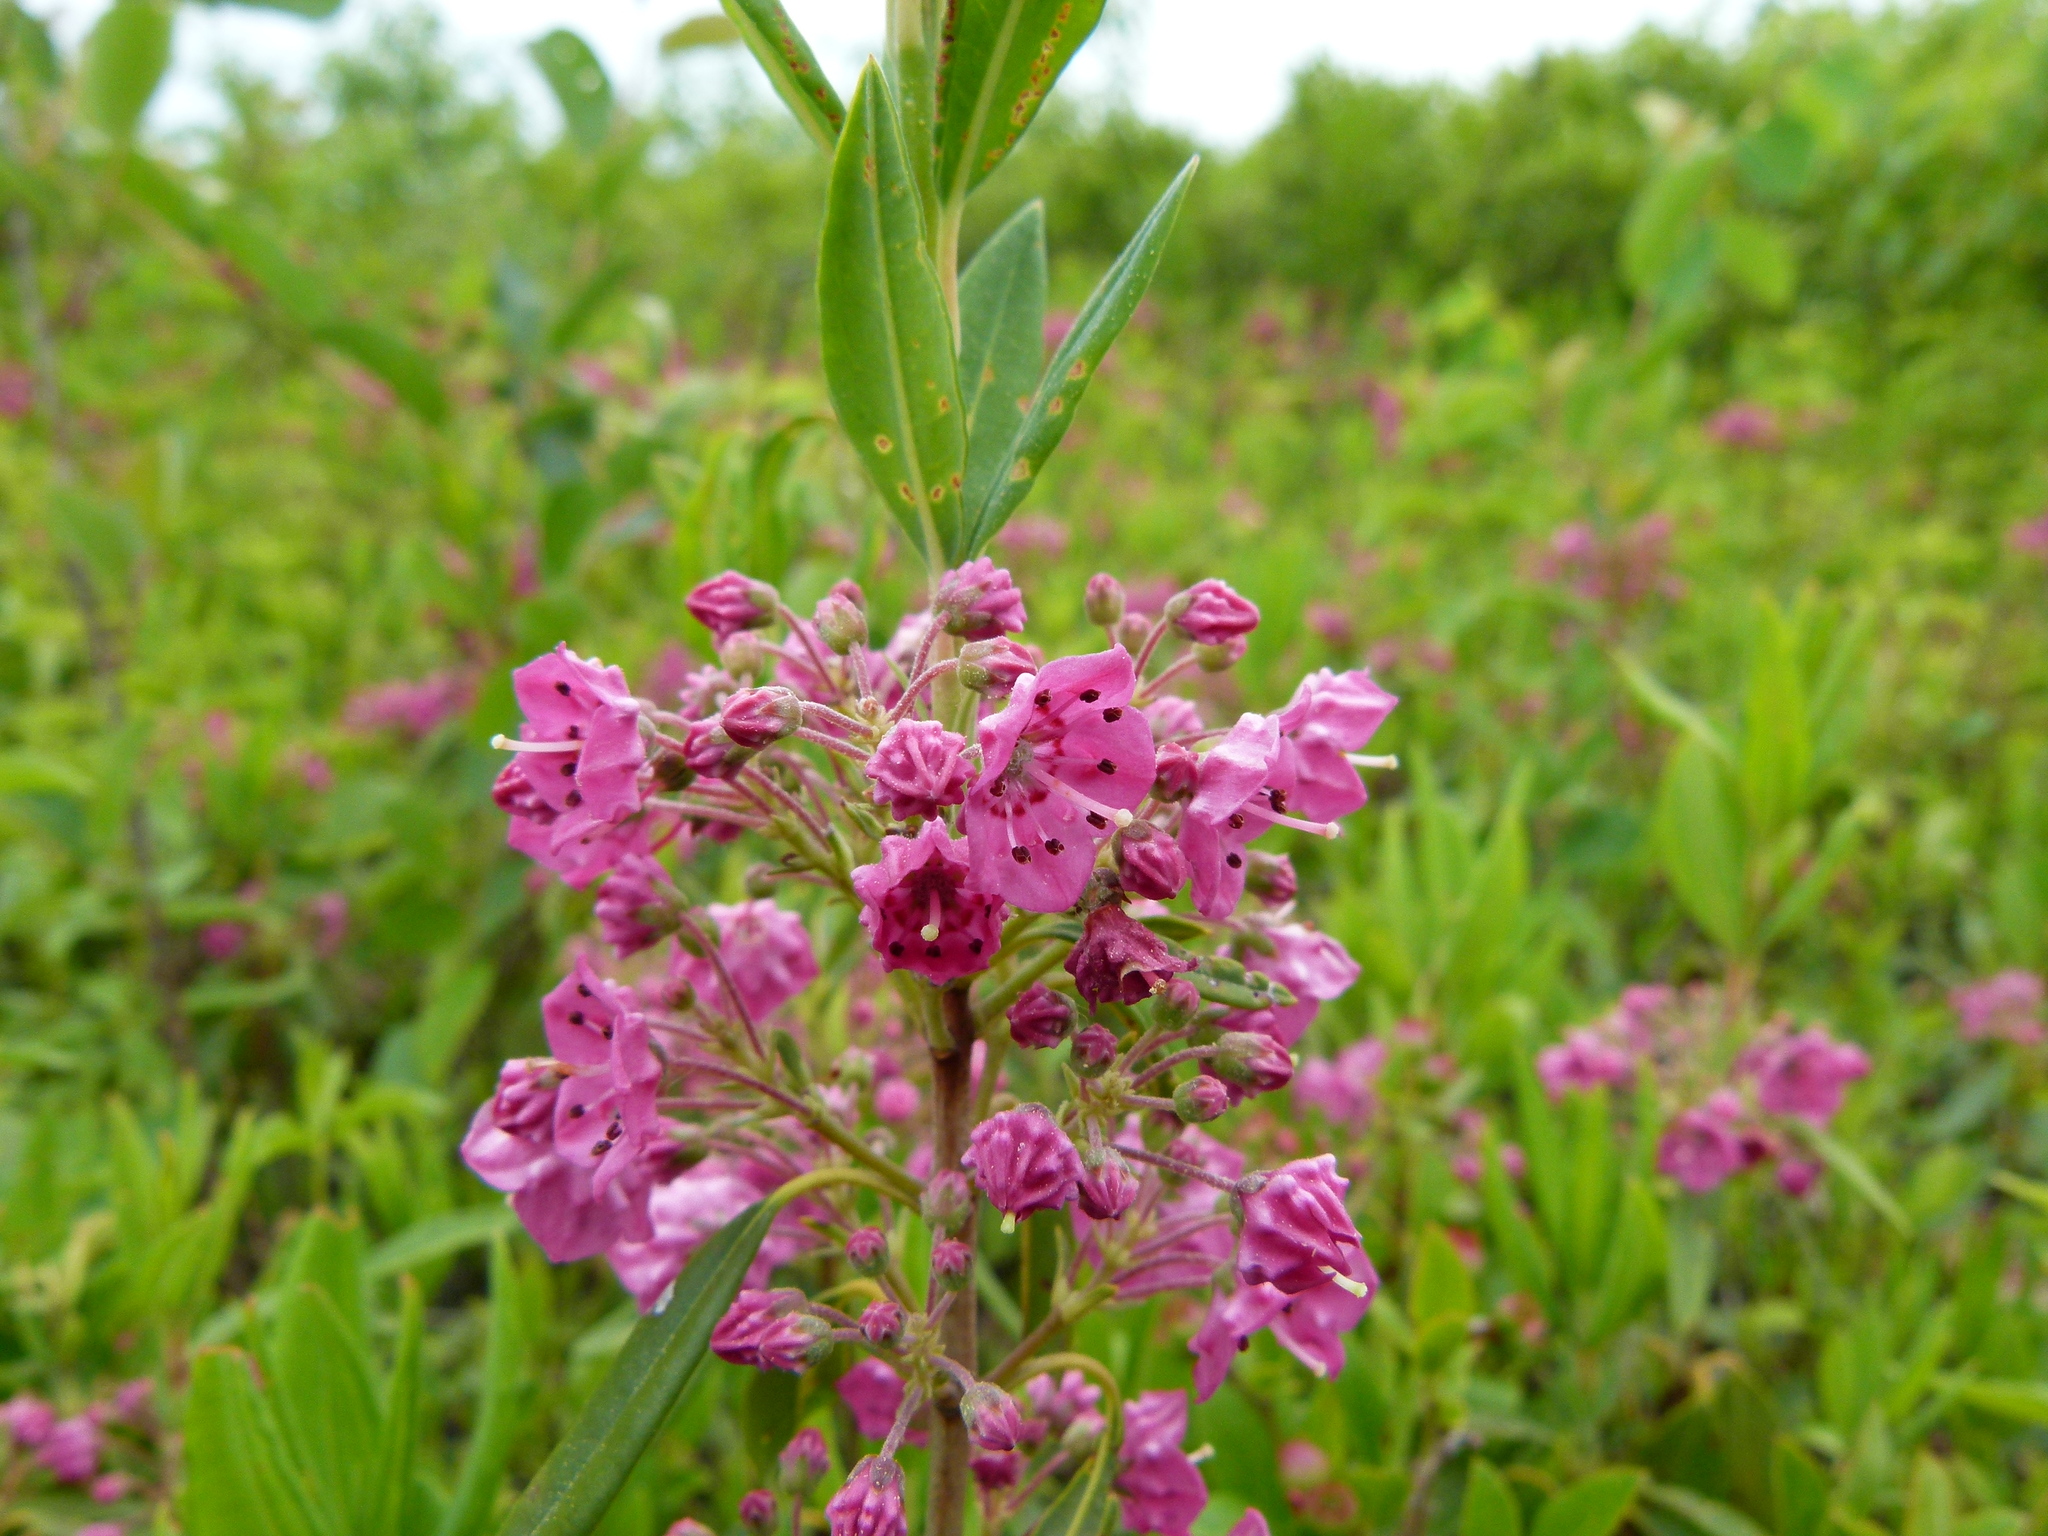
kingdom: Plantae
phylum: Tracheophyta
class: Magnoliopsida
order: Ericales
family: Ericaceae
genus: Kalmia
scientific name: Kalmia angustifolia
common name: Sheep-laurel
